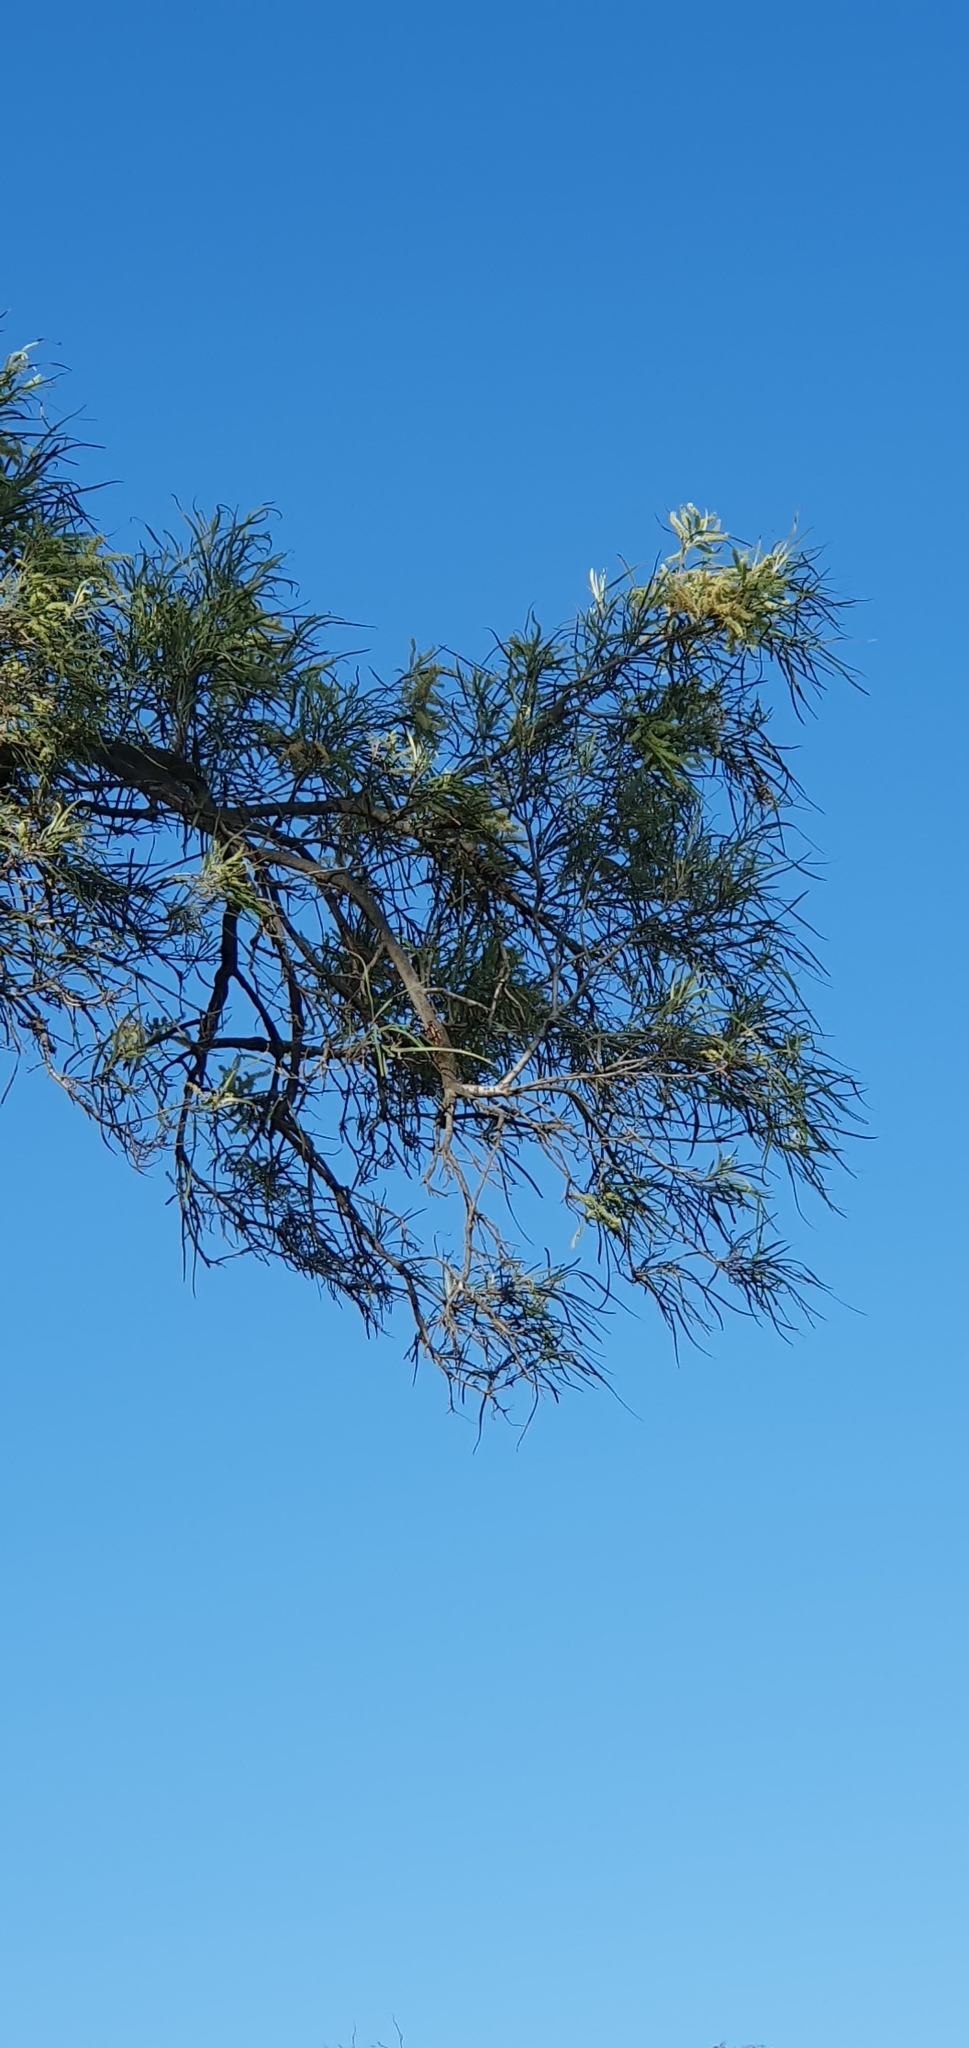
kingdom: Plantae
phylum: Tracheophyta
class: Magnoliopsida
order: Proteales
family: Proteaceae
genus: Grevillea
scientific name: Grevillea striata
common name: Beefwood
